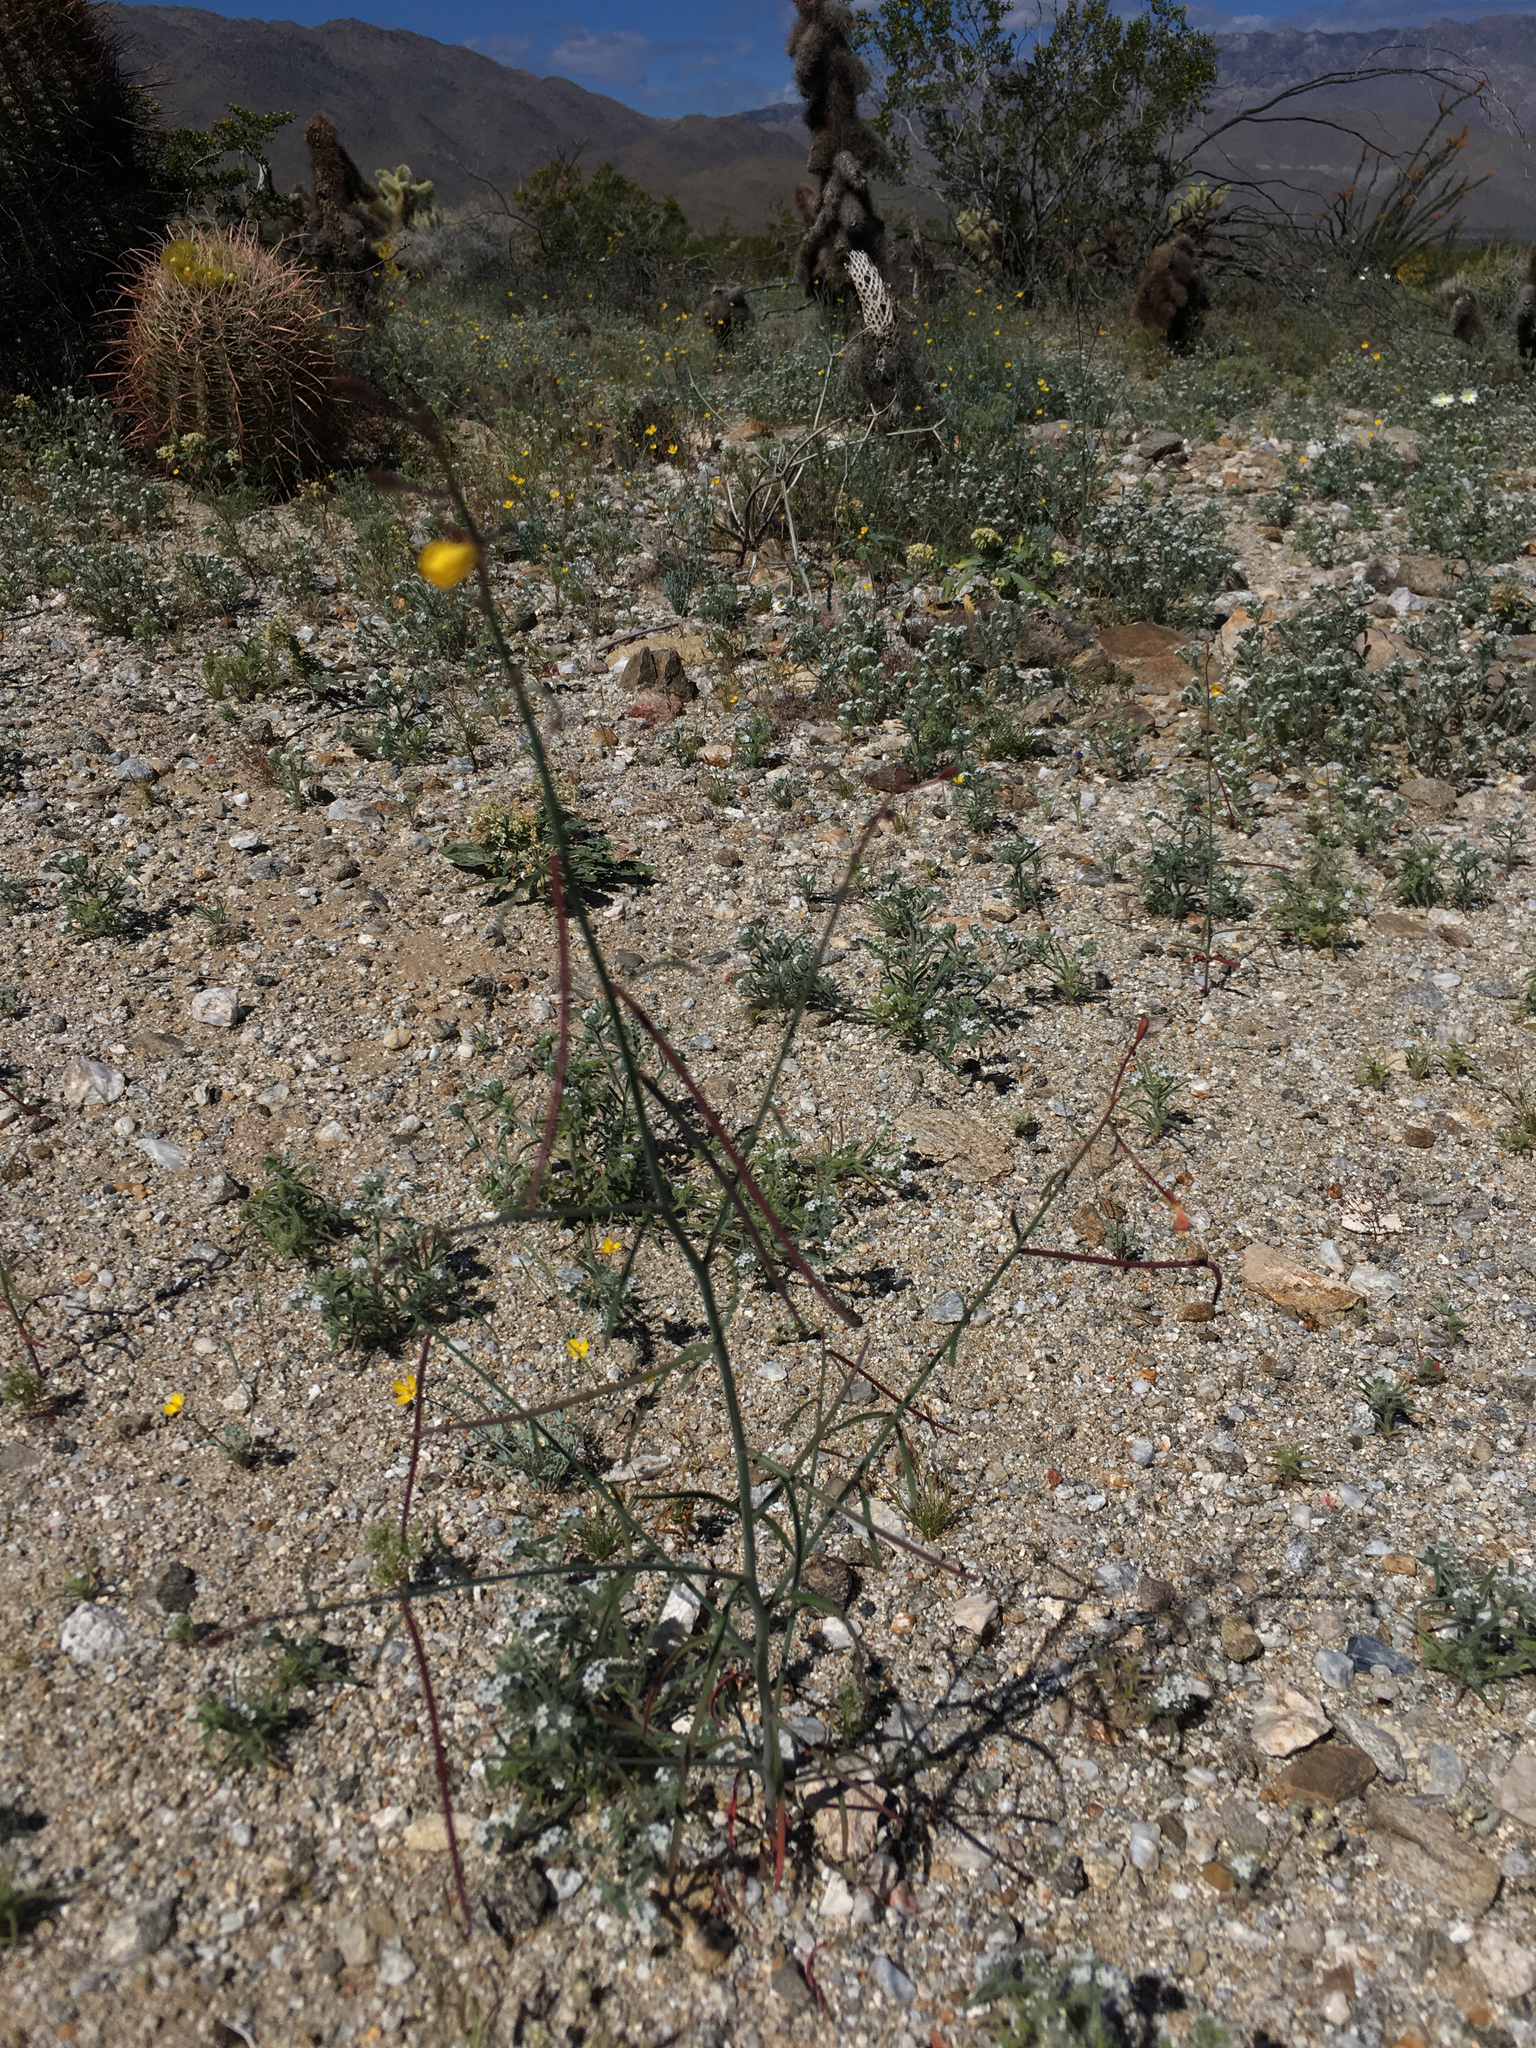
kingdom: Plantae
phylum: Tracheophyta
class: Magnoliopsida
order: Myrtales
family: Onagraceae
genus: Eulobus
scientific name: Eulobus californicus
